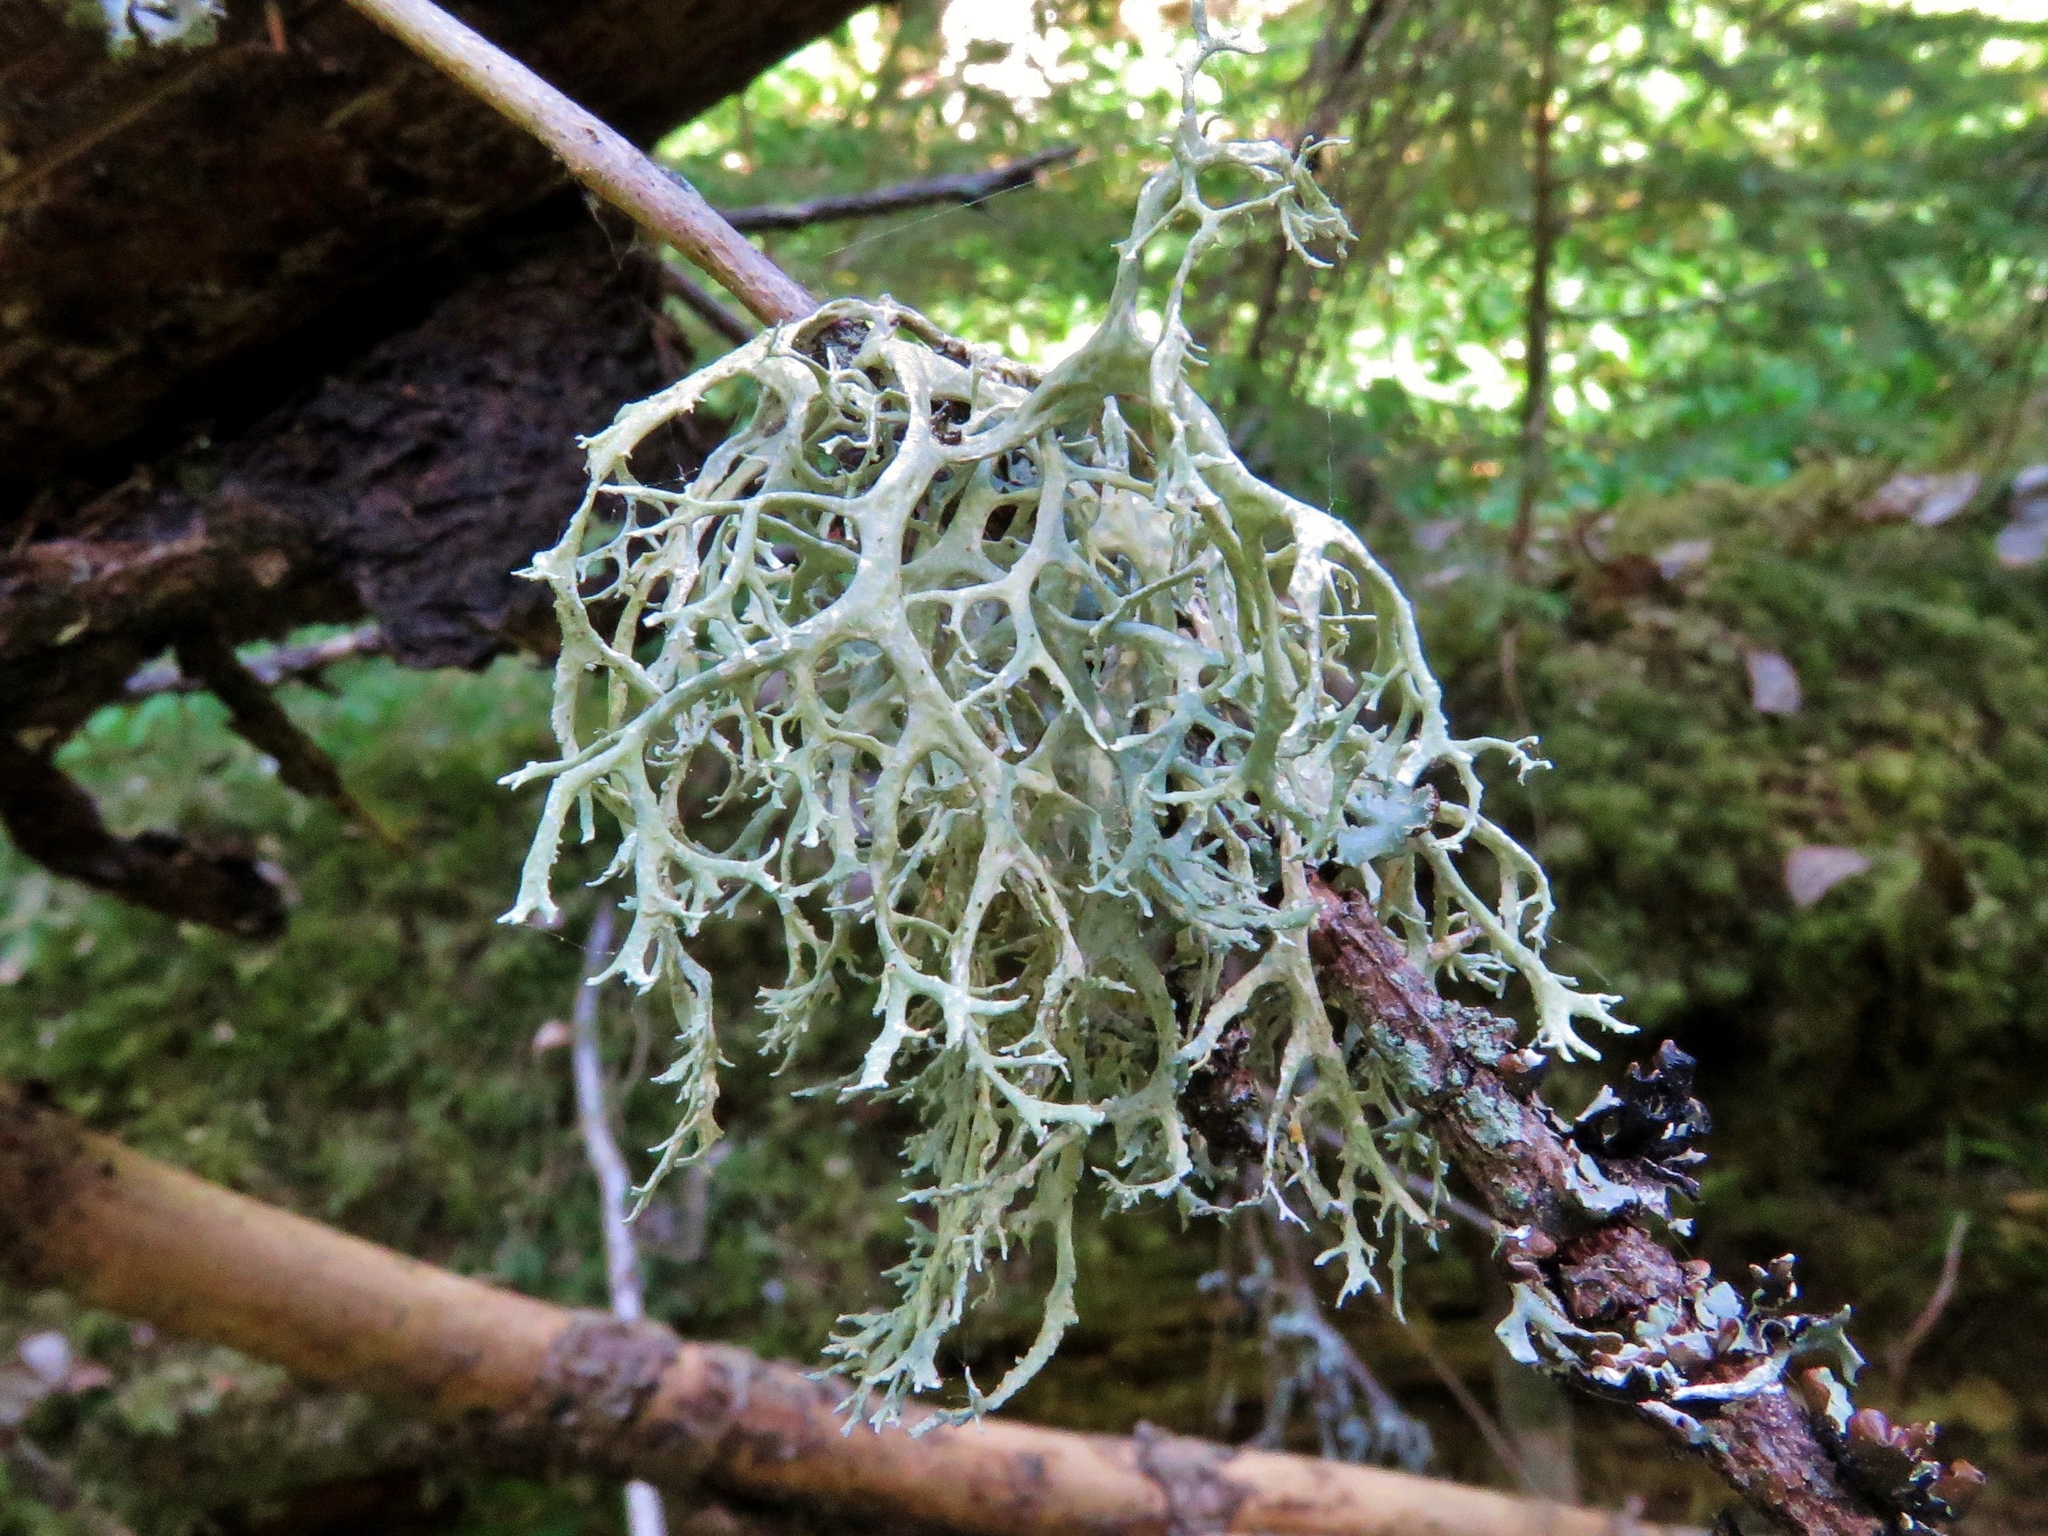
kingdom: Fungi
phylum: Ascomycota
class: Lecanoromycetes
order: Lecanorales
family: Parmeliaceae
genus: Evernia
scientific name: Evernia prunastri
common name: Oak moss
